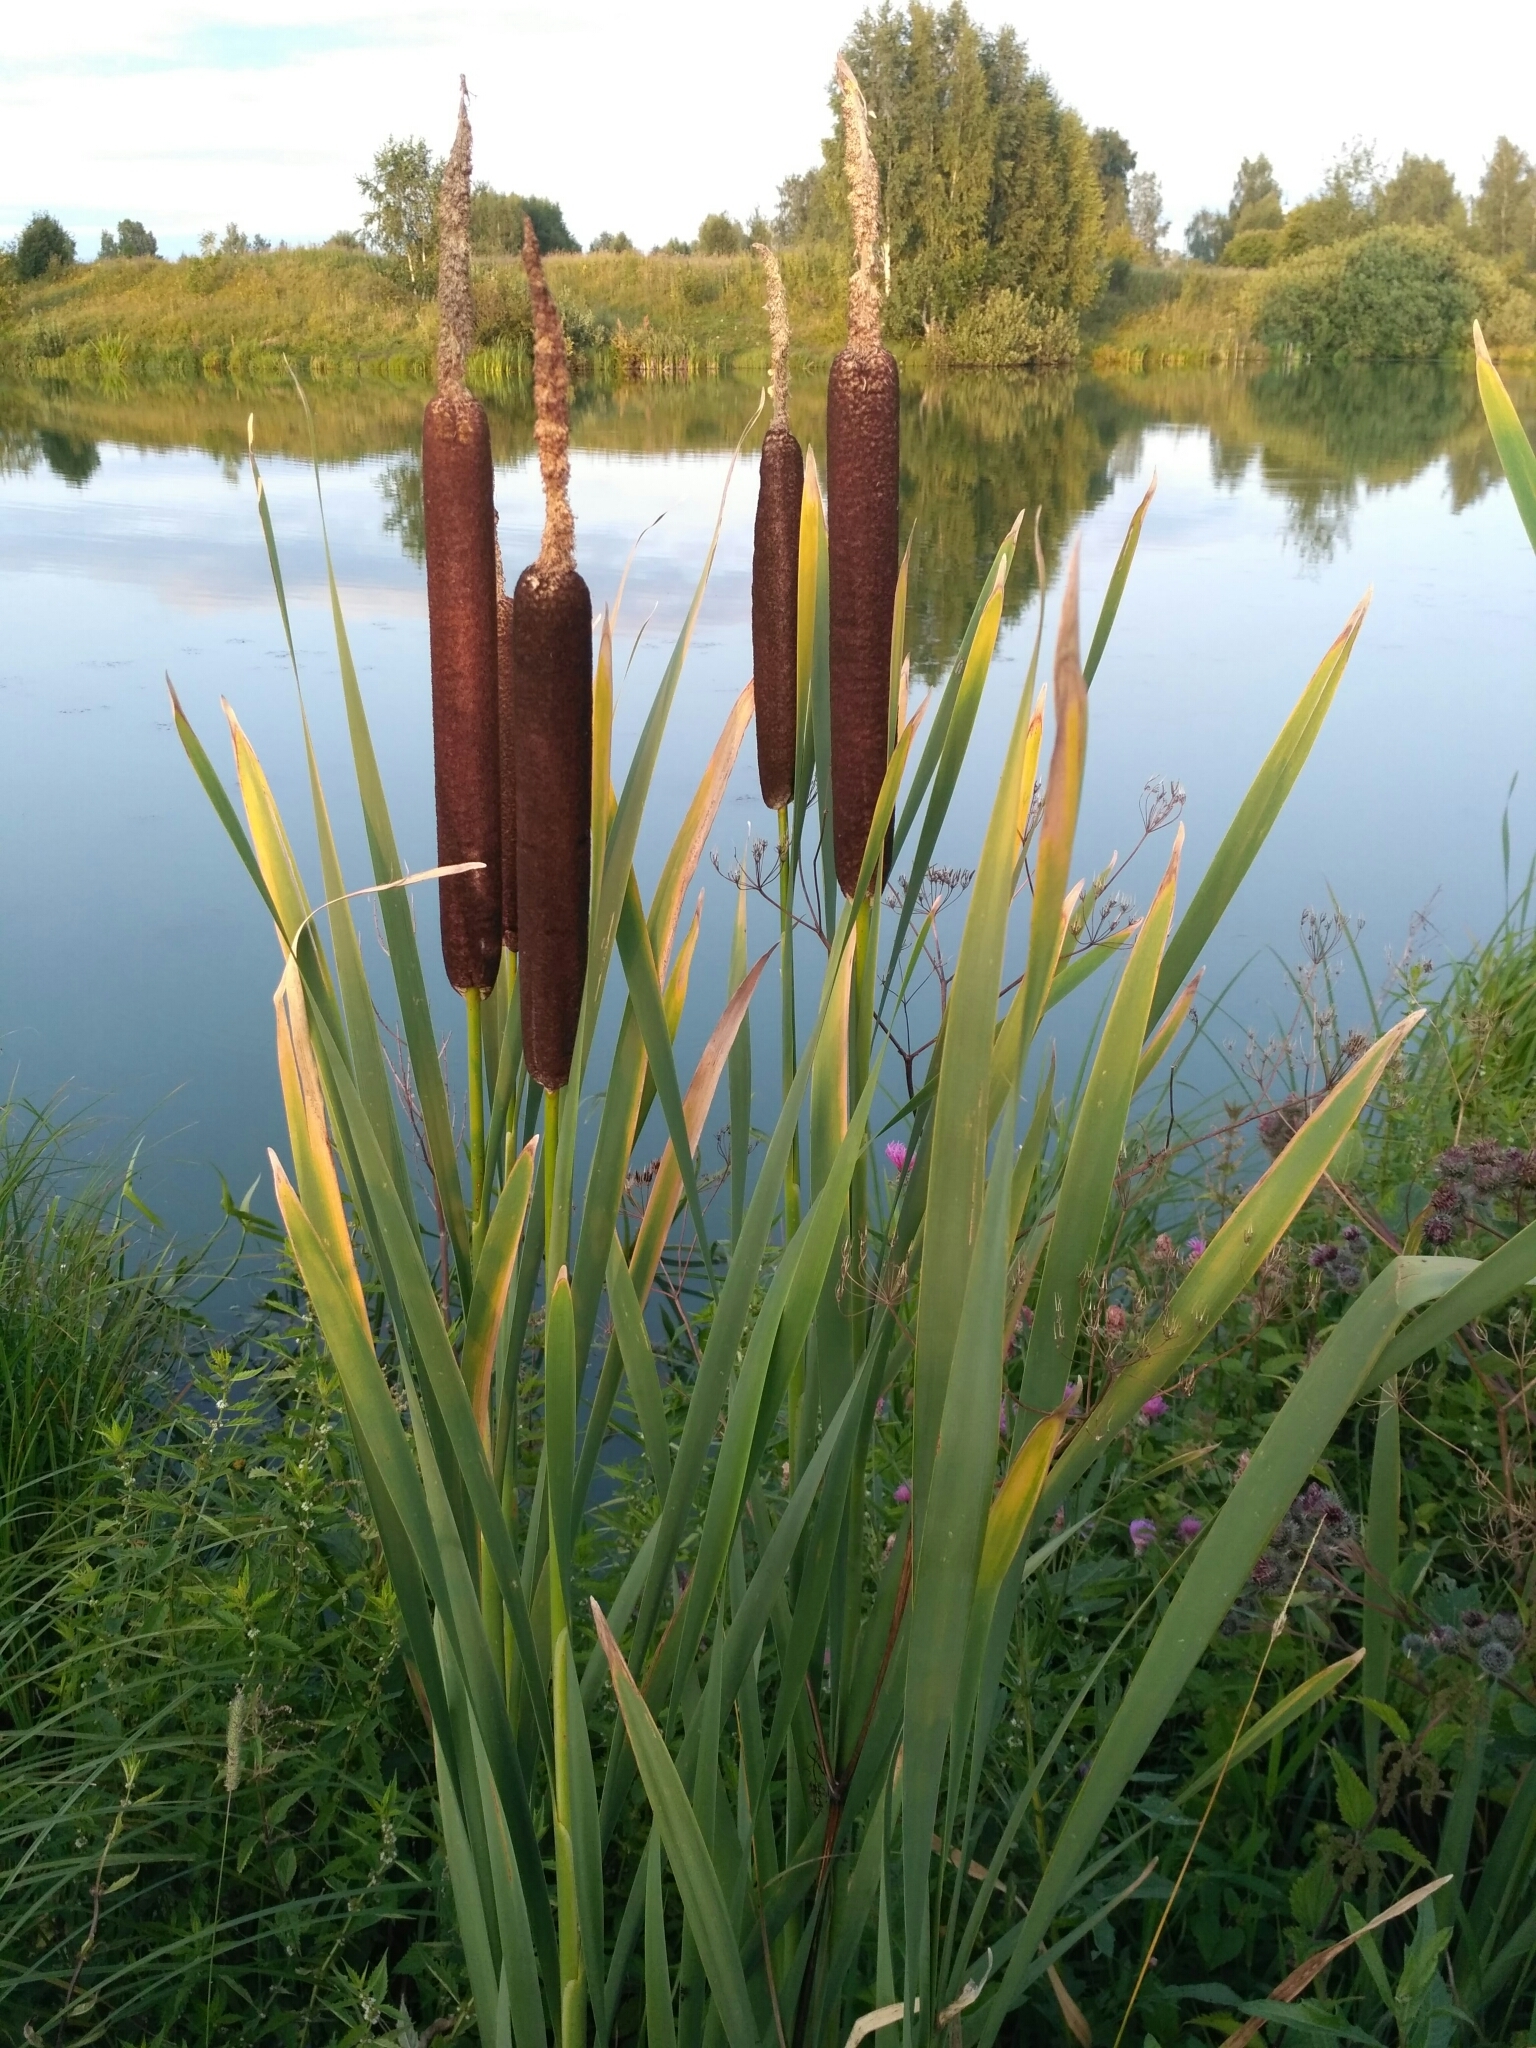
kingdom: Plantae
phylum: Tracheophyta
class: Liliopsida
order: Poales
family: Typhaceae
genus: Typha
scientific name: Typha latifolia
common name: Broadleaf cattail
